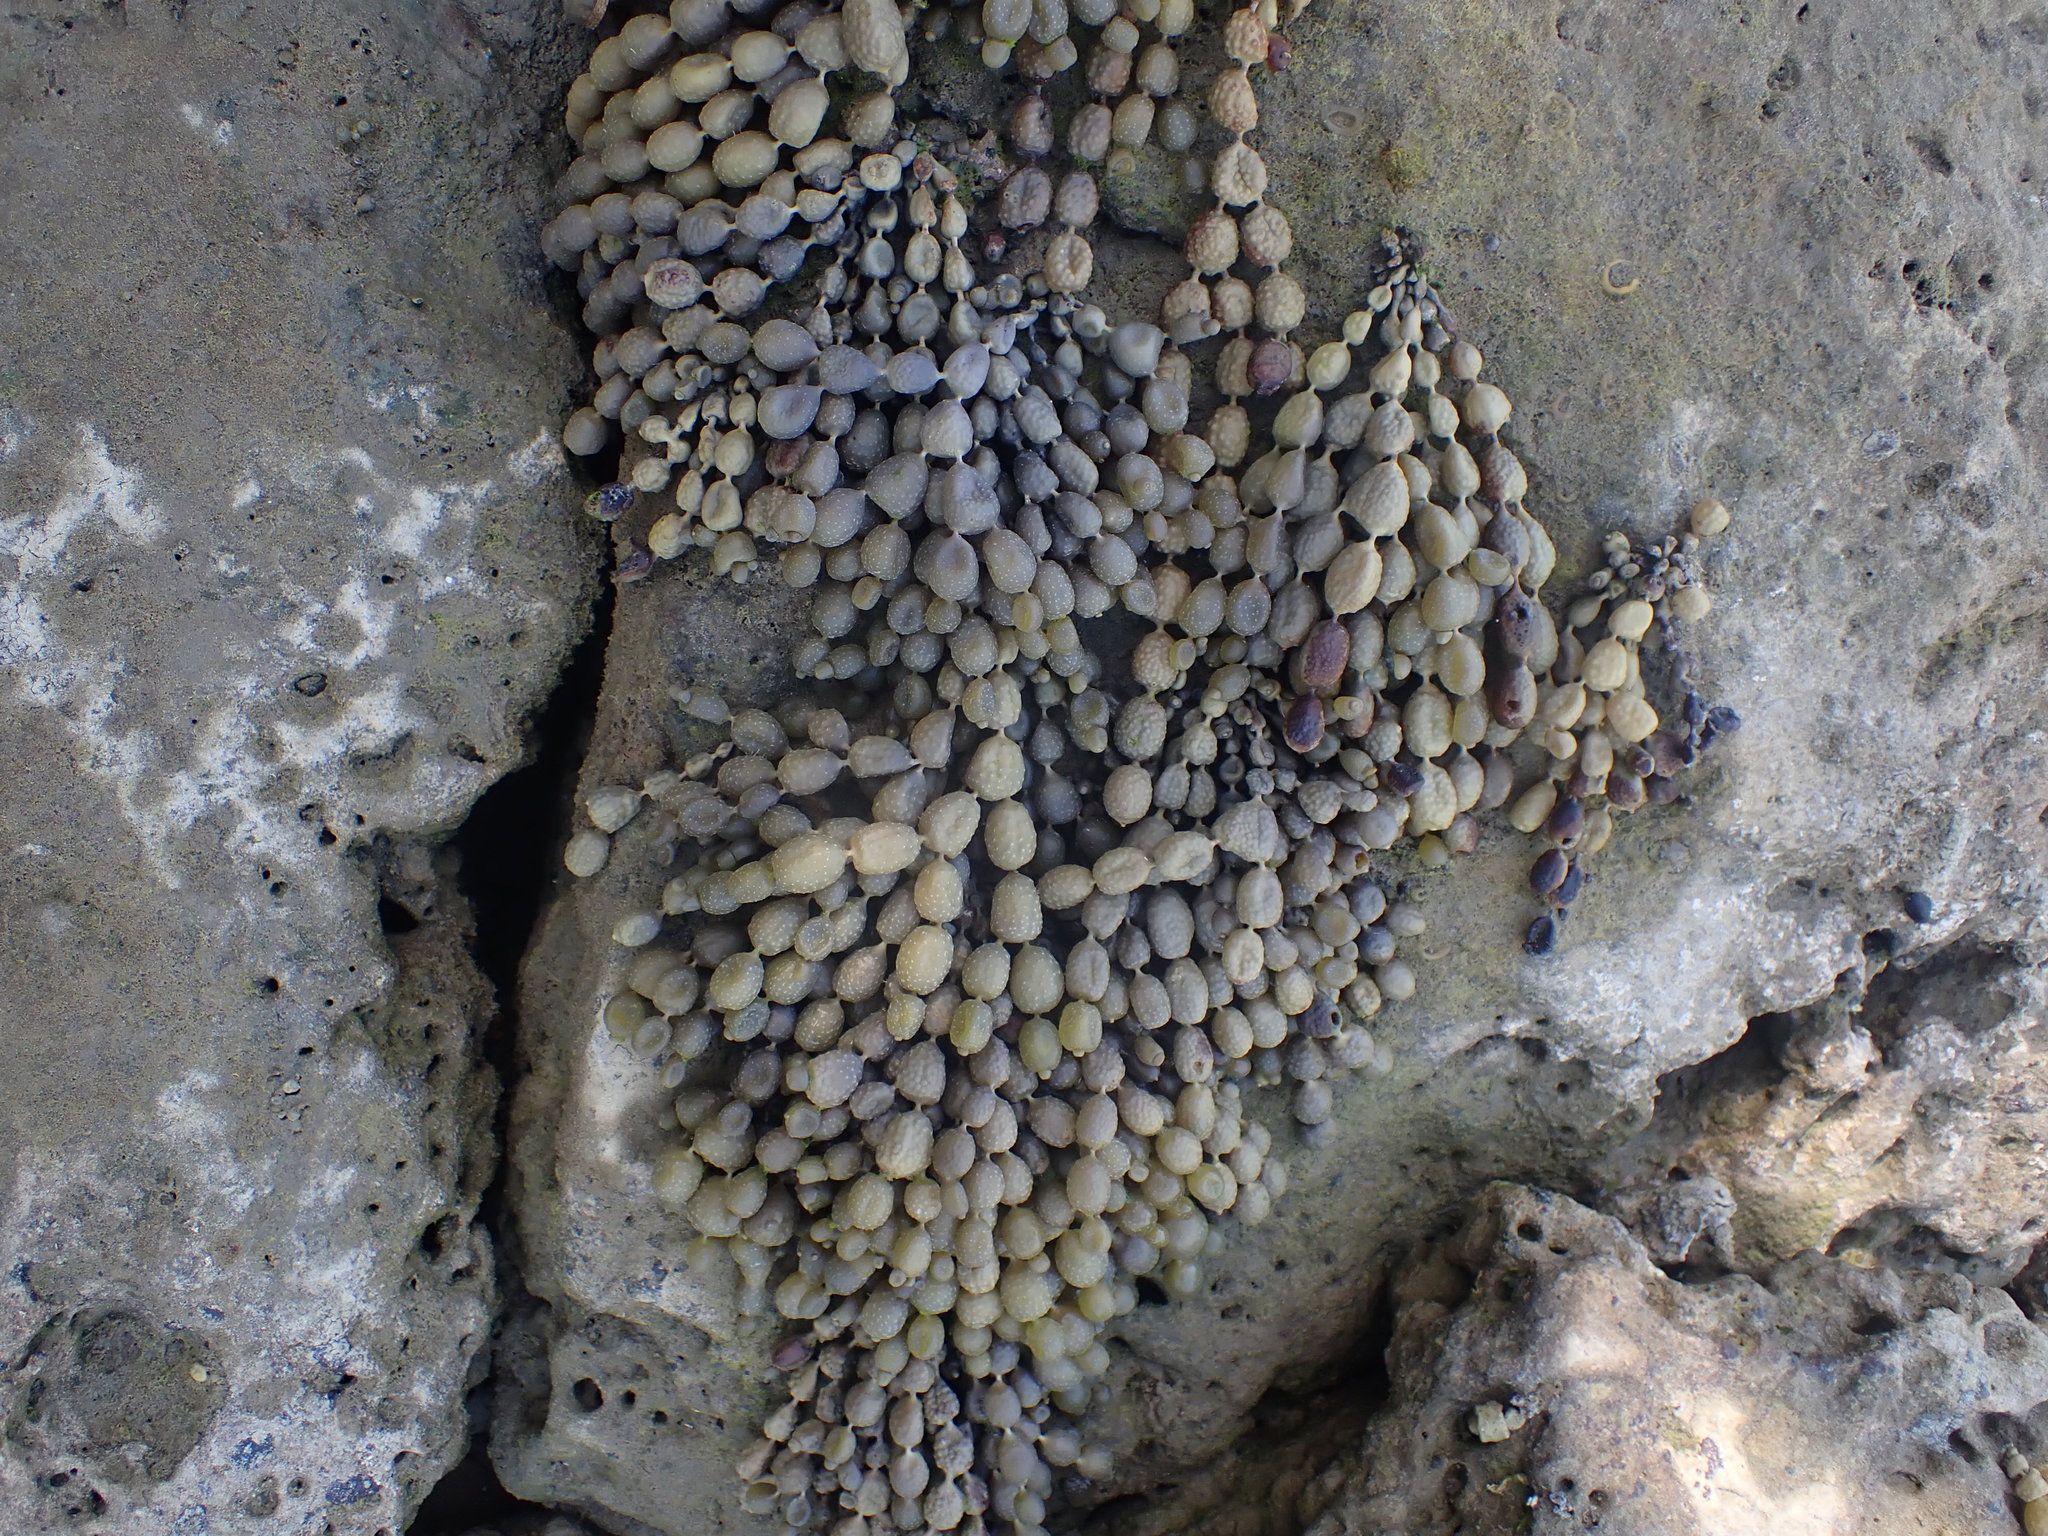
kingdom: Chromista
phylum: Ochrophyta
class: Phaeophyceae
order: Fucales
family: Hormosiraceae
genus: Hormosira
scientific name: Hormosira banksii
